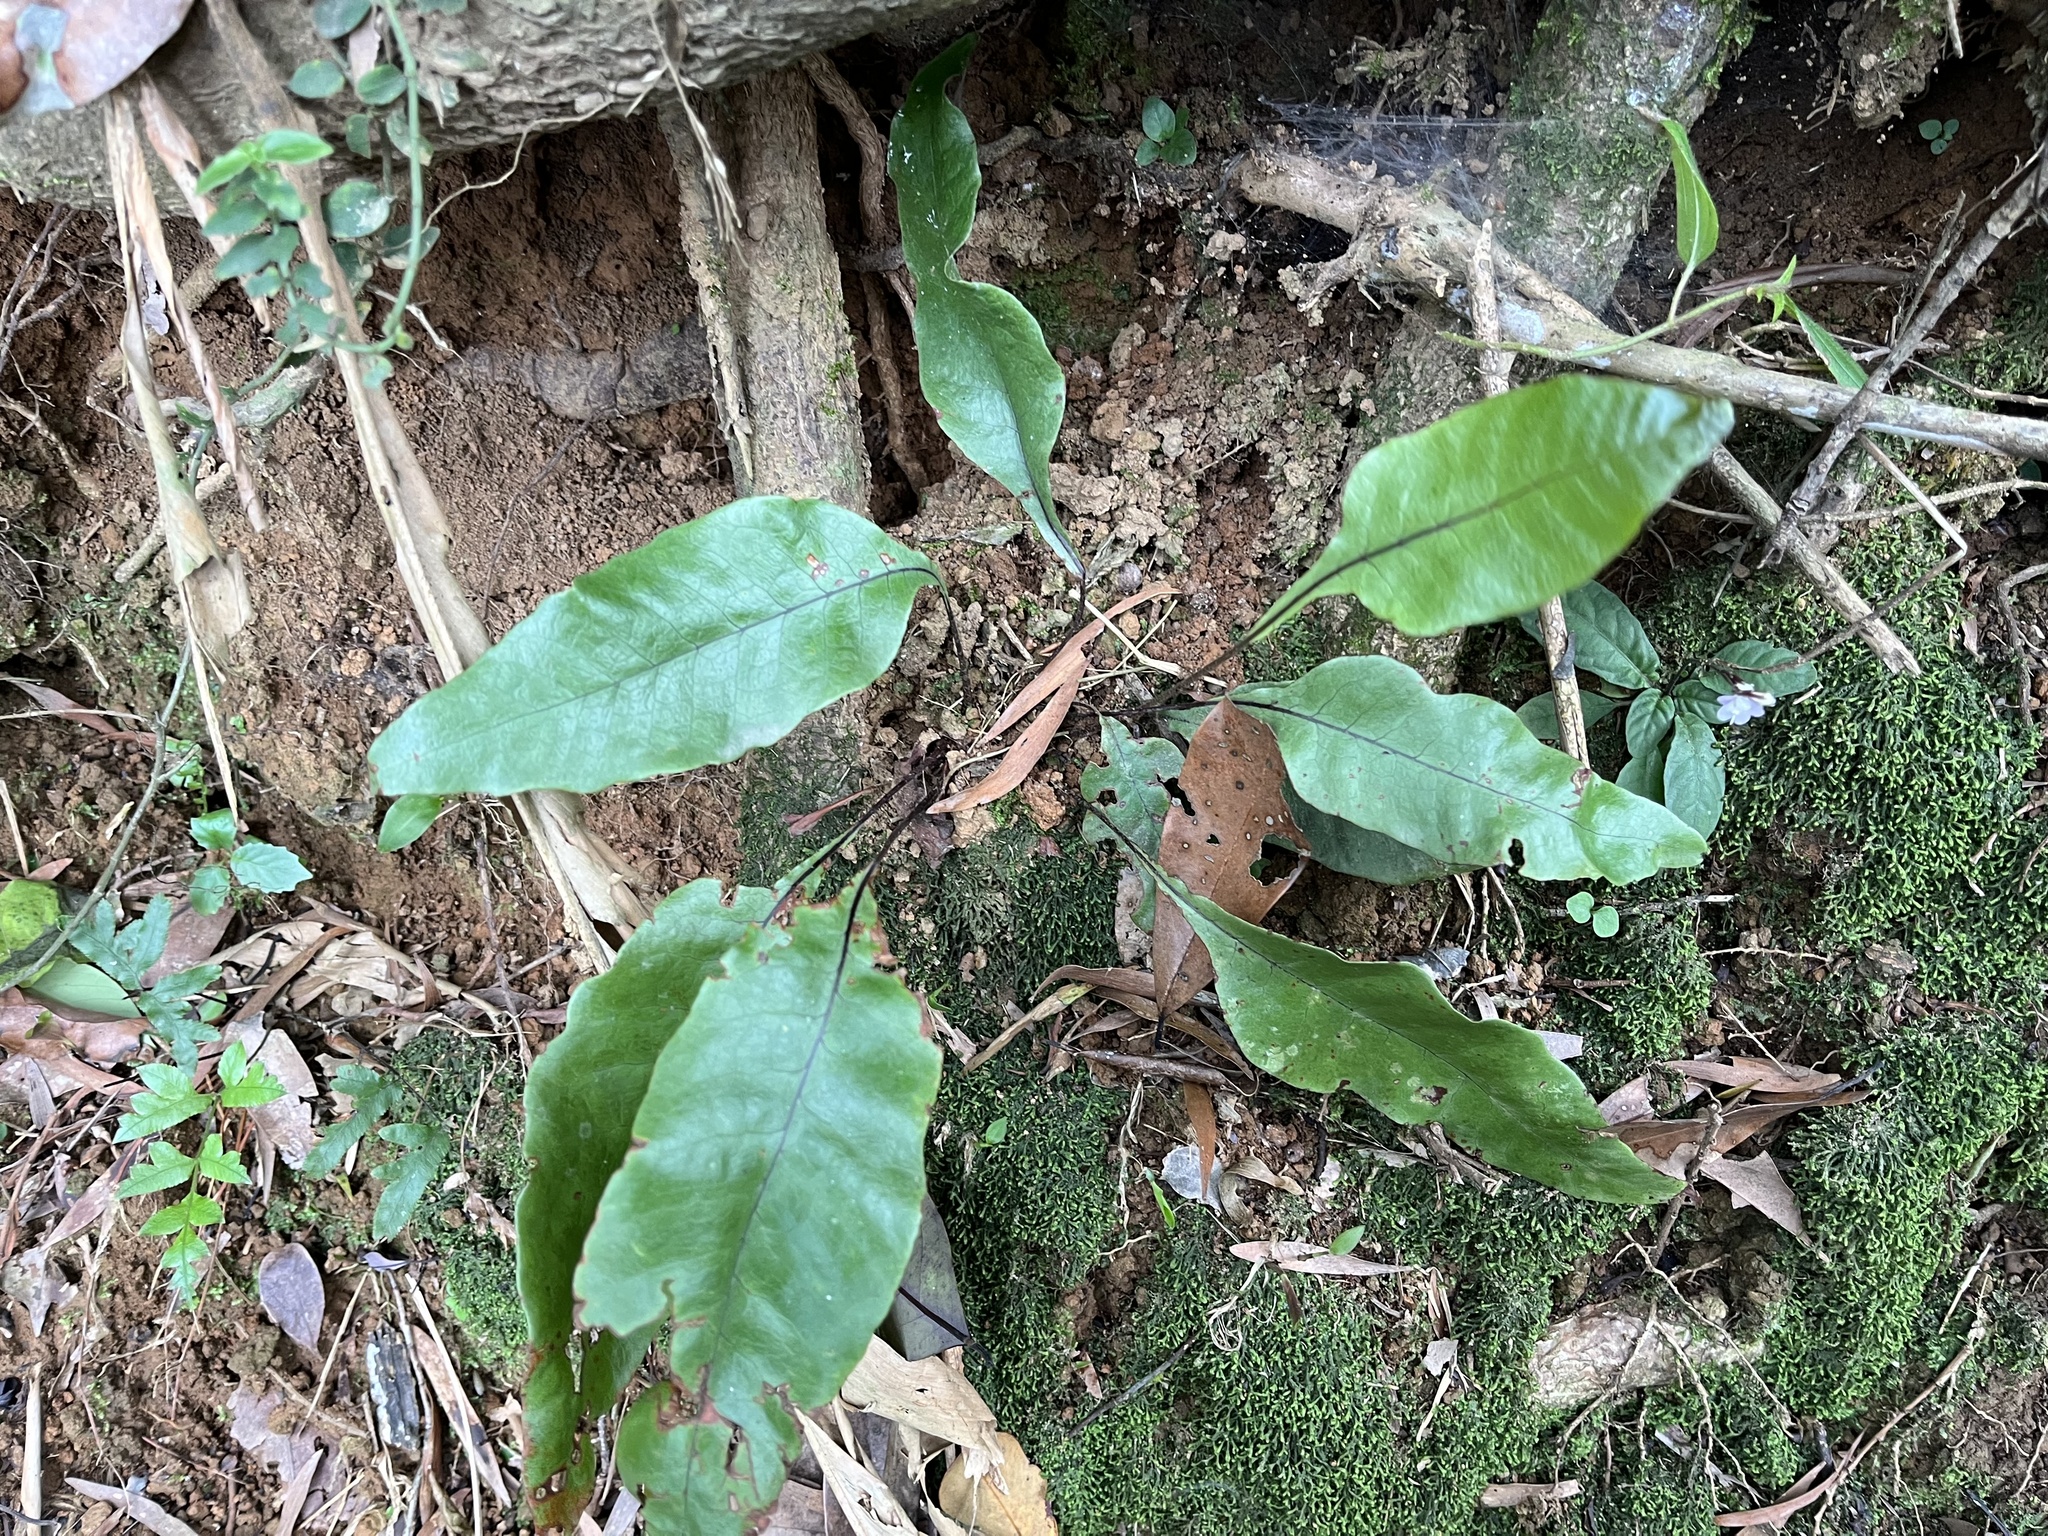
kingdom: Plantae
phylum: Tracheophyta
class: Polypodiopsida
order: Polypodiales
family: Tectariaceae
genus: Tectaria
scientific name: Tectaria harlandii
